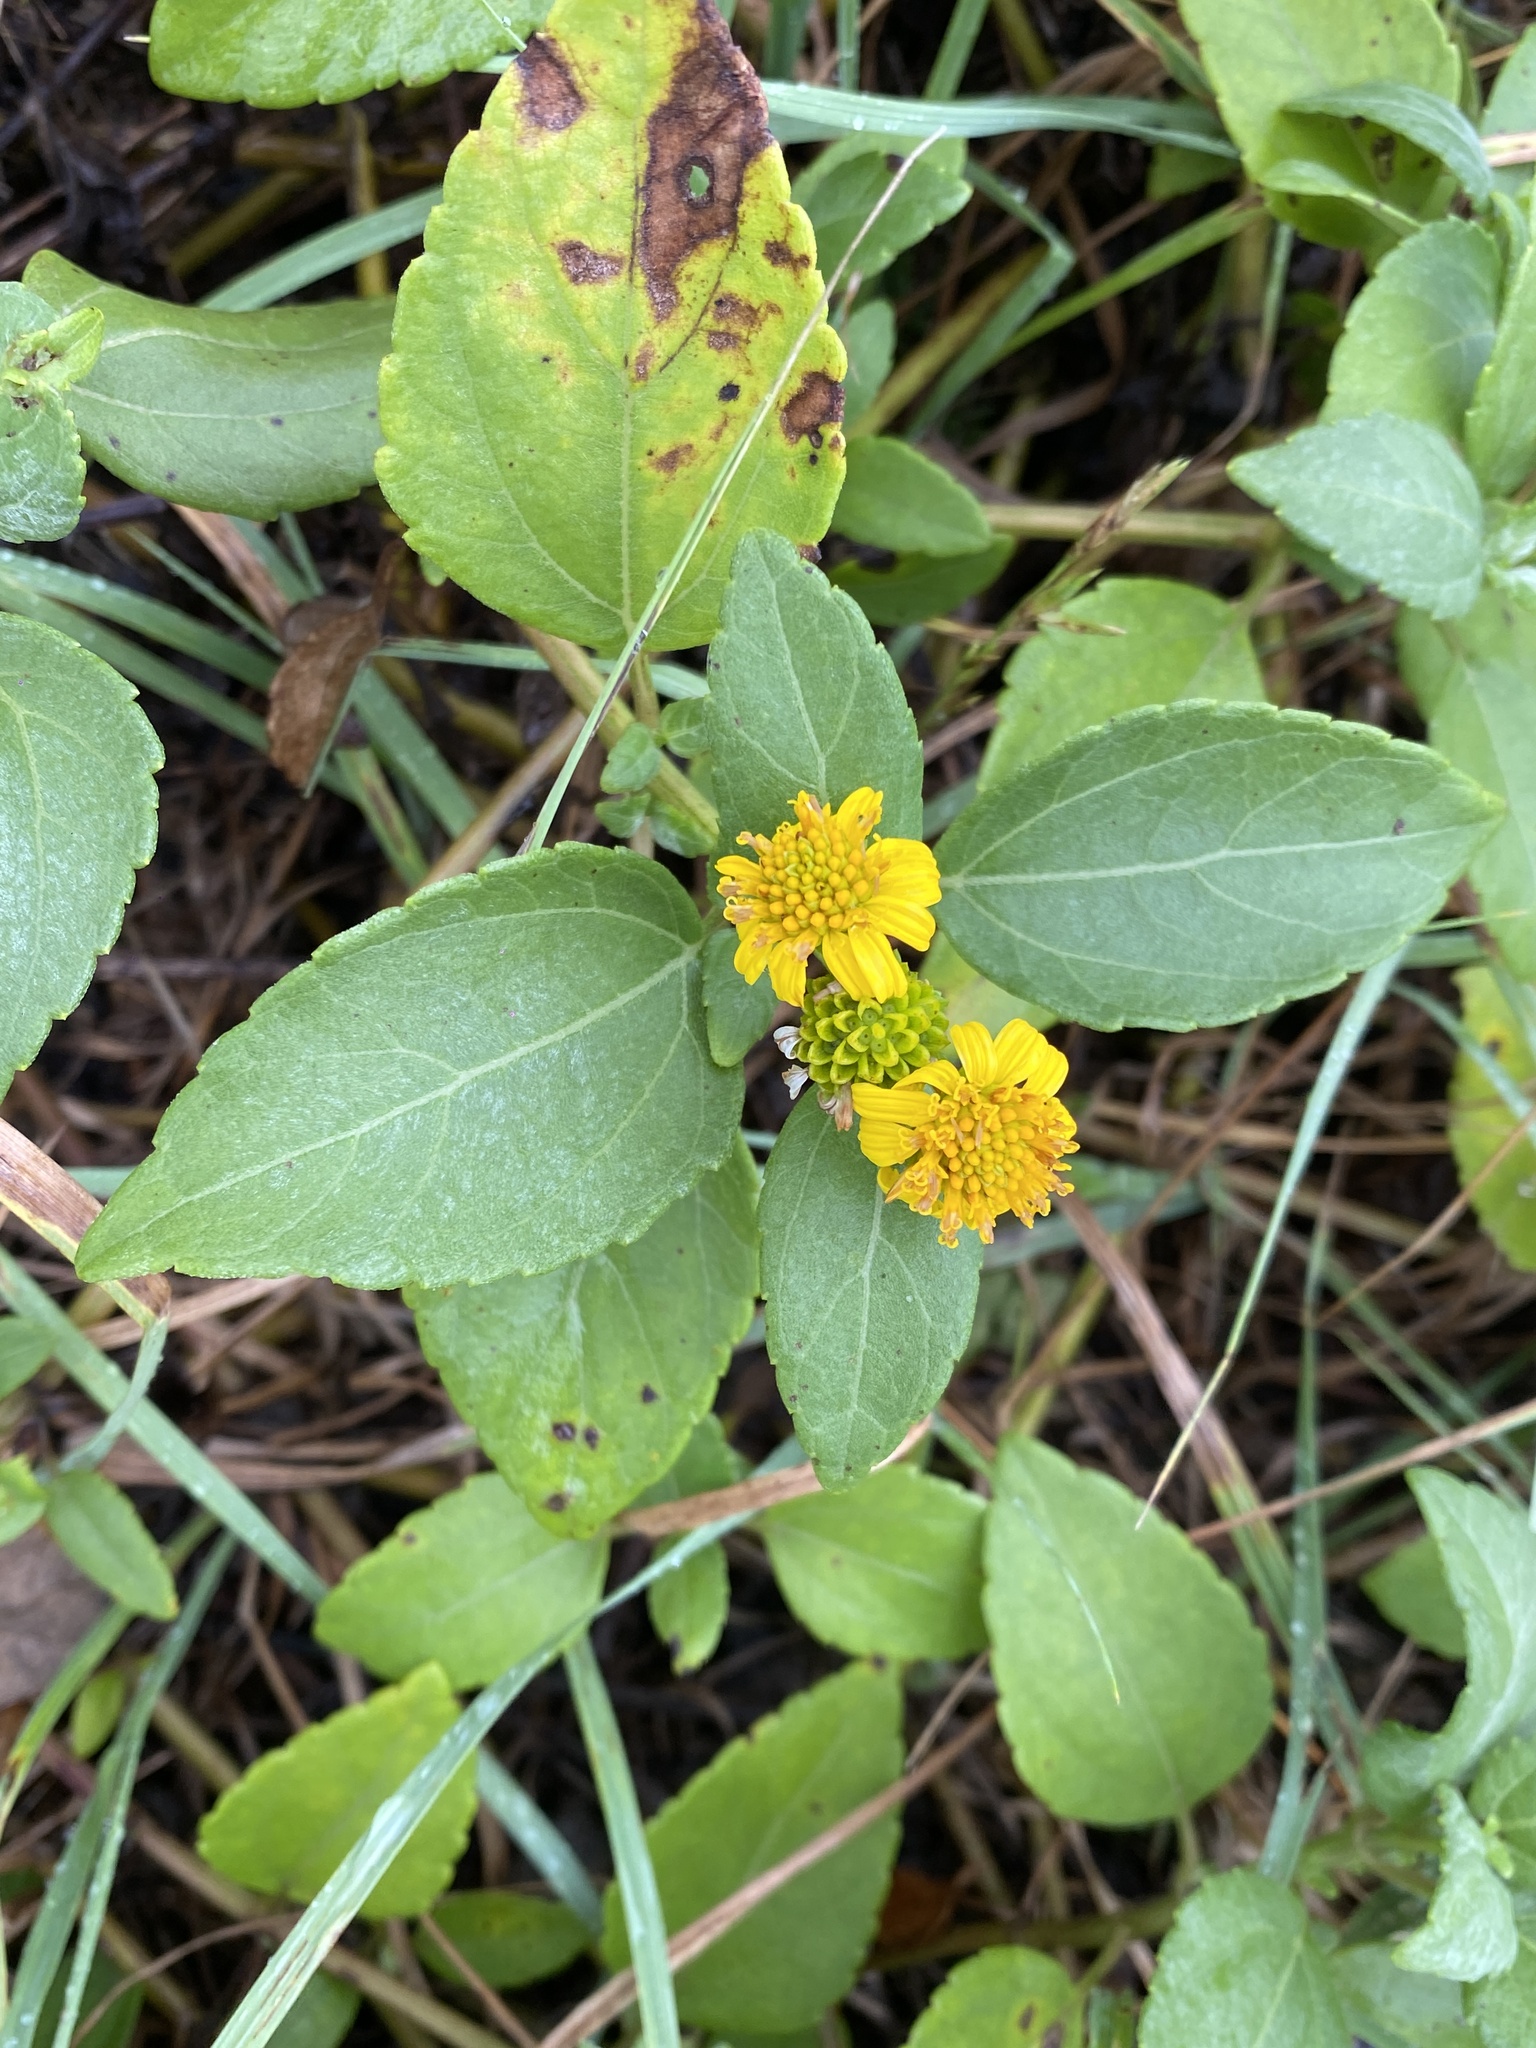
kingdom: Plantae
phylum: Tracheophyta
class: Magnoliopsida
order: Asterales
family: Asteraceae
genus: Wollastonia
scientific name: Wollastonia uniflora
